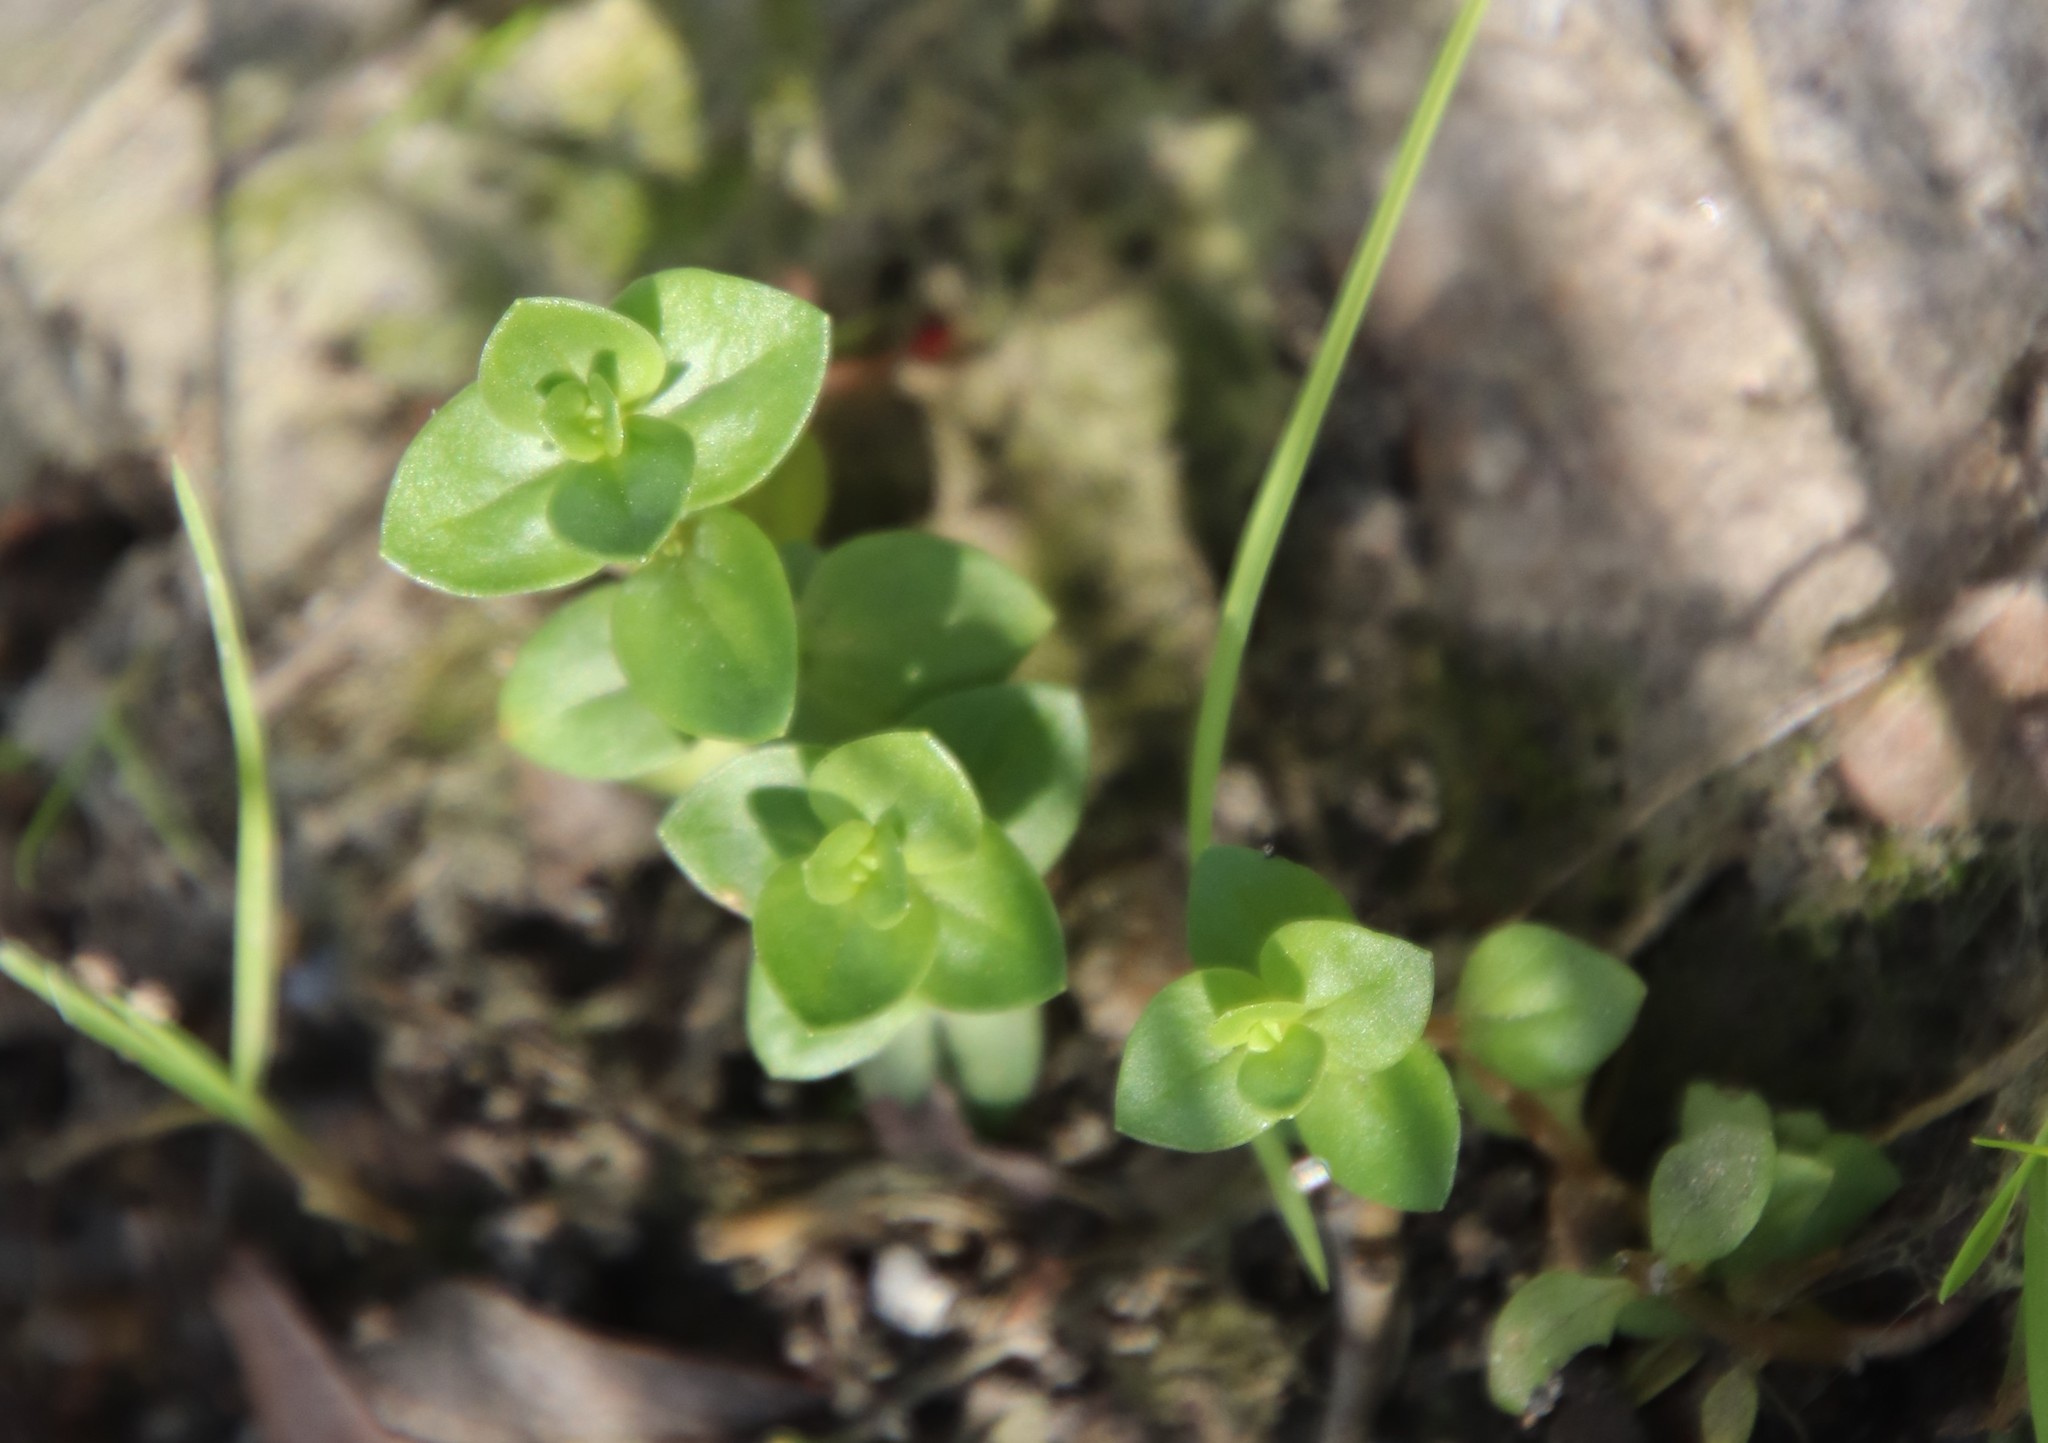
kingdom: Plantae
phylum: Tracheophyta
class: Magnoliopsida
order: Ericales
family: Primulaceae
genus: Lysimachia
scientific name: Lysimachia arvensis
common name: Scarlet pimpernel
